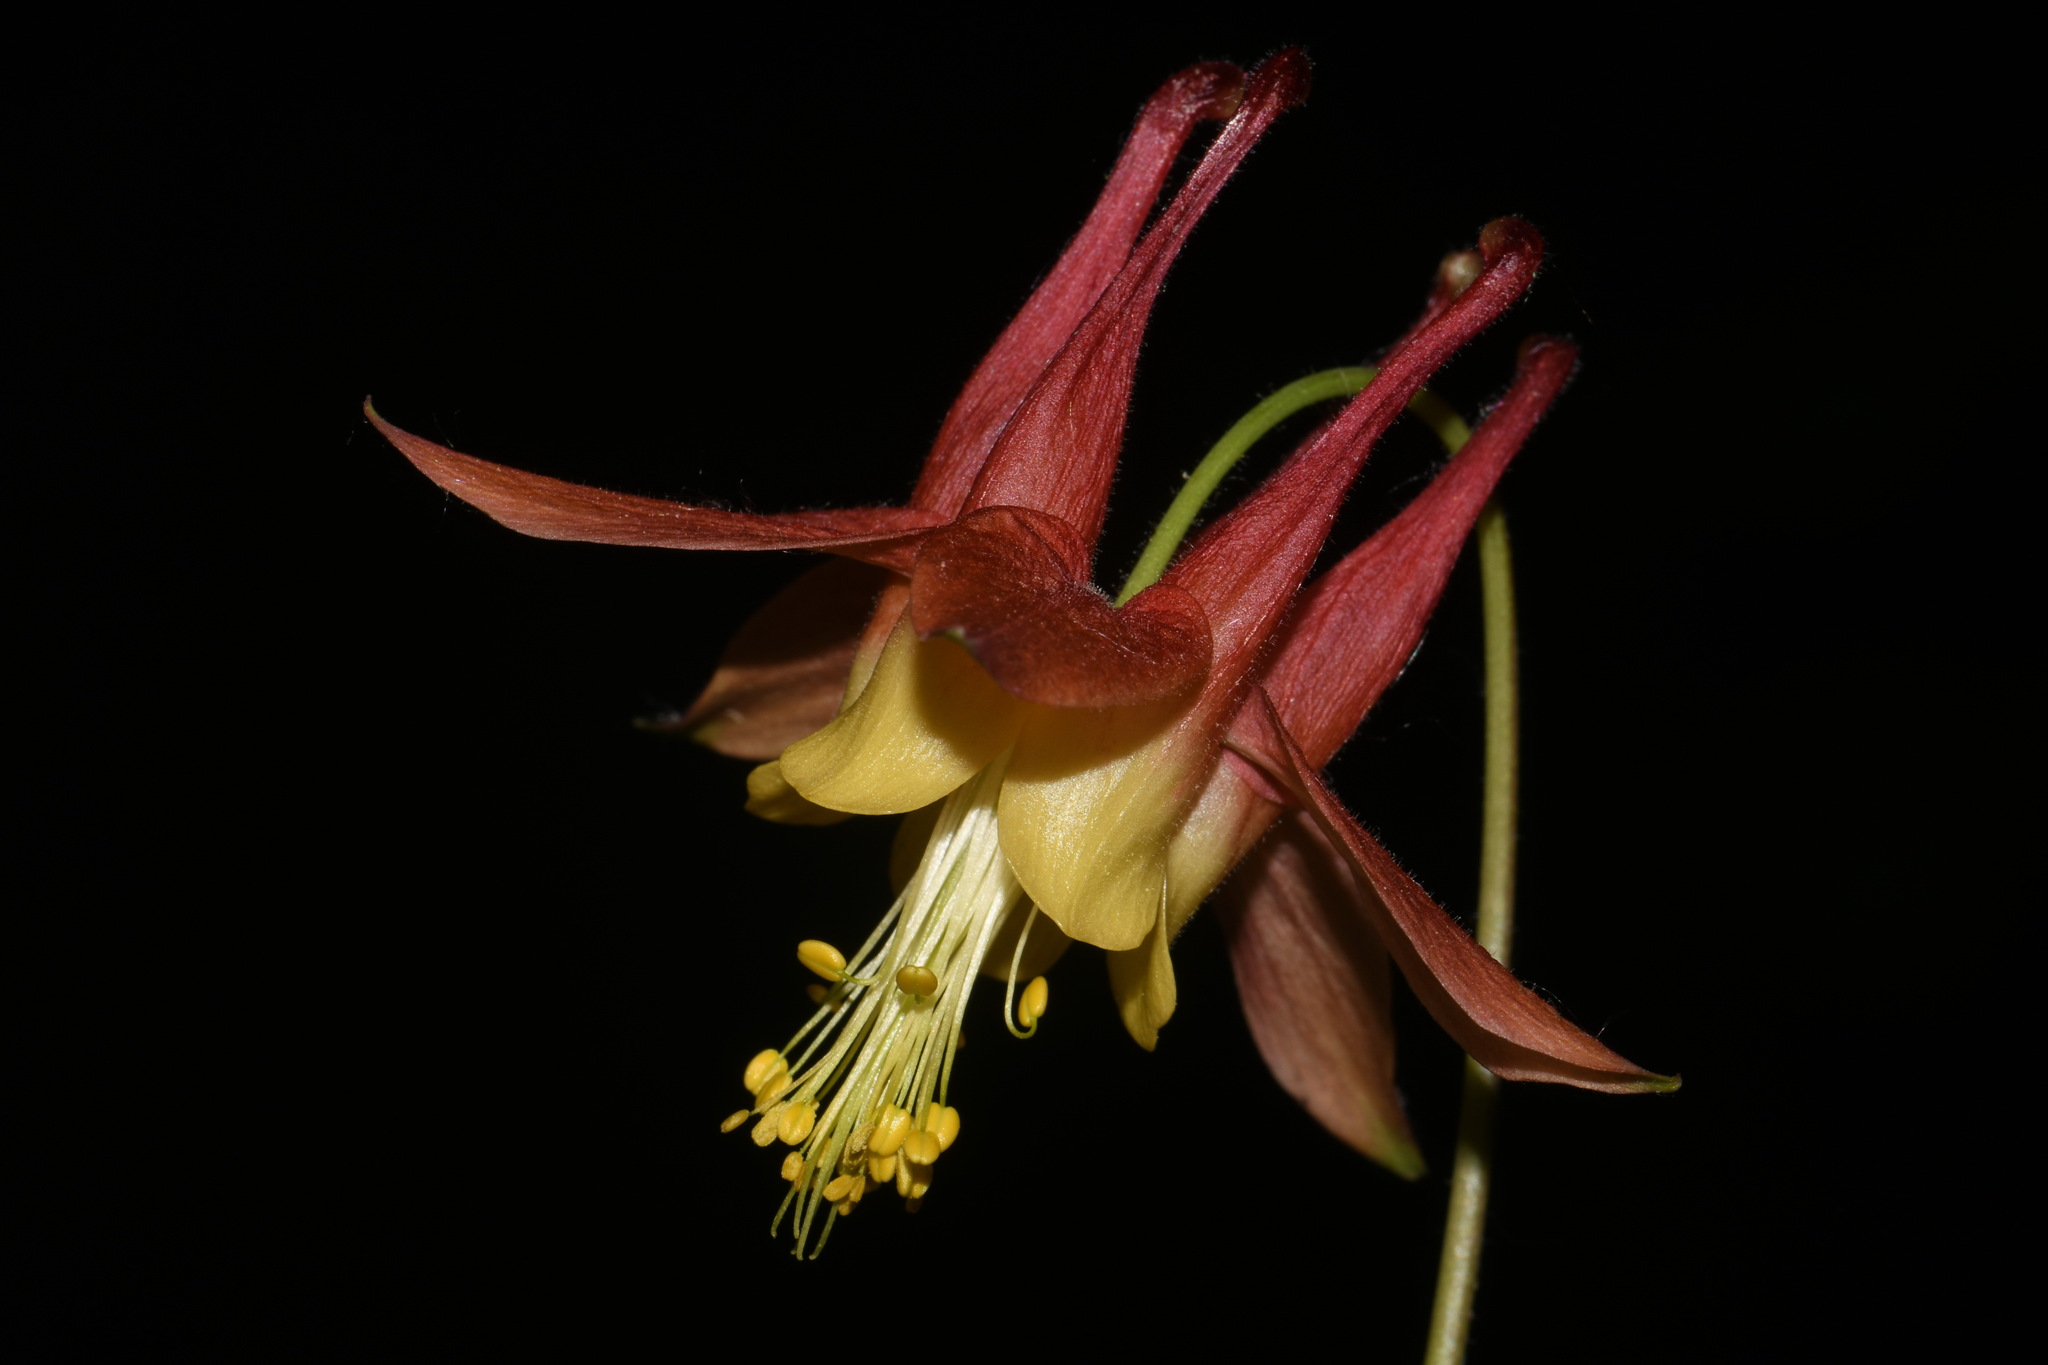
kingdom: Plantae
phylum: Tracheophyta
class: Magnoliopsida
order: Ranunculales
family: Ranunculaceae
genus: Aquilegia
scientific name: Aquilegia canadensis
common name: American columbine
